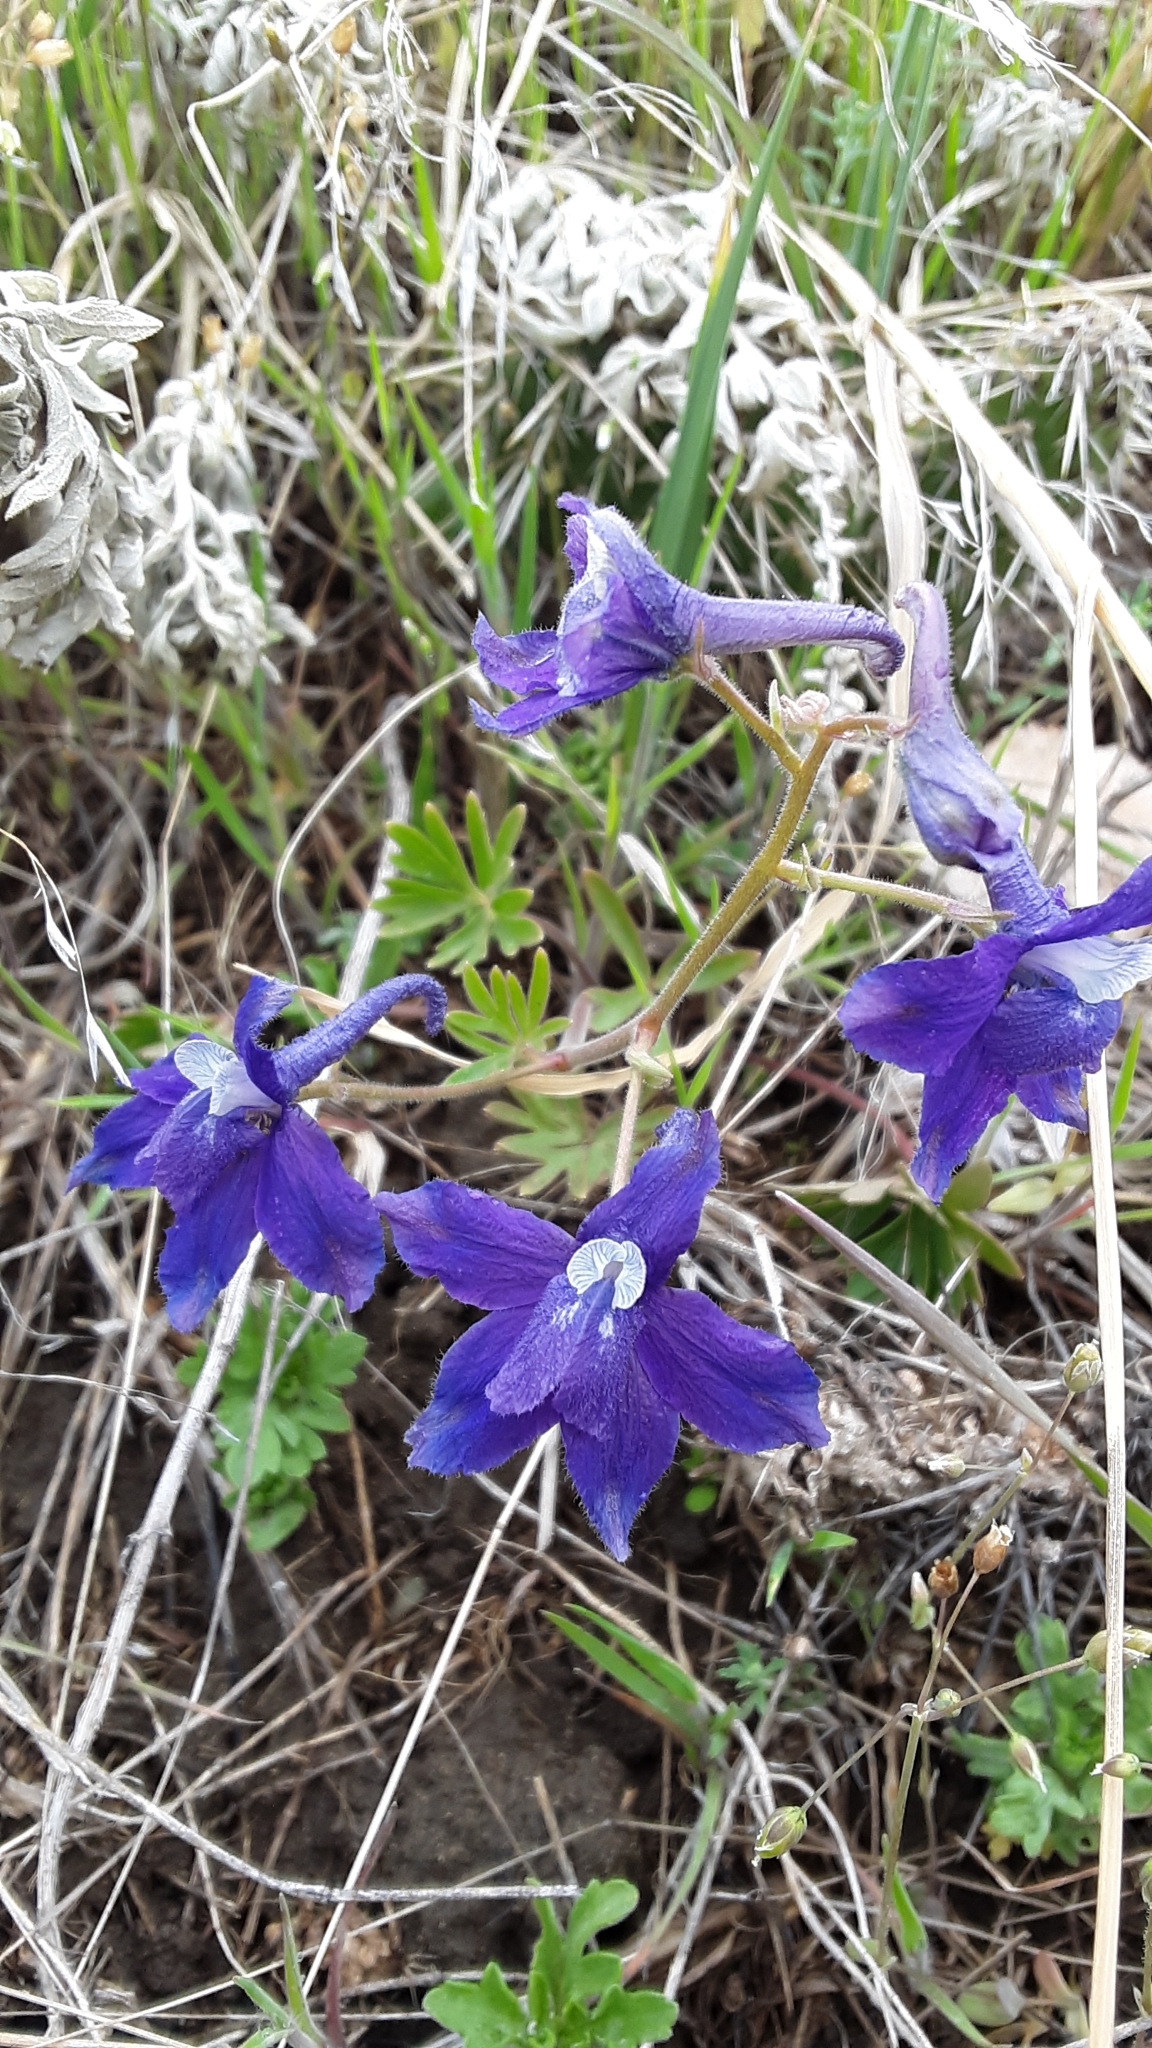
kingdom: Plantae
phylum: Tracheophyta
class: Magnoliopsida
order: Ranunculales
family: Ranunculaceae
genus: Delphinium
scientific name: Delphinium bicolor
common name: Low larkspur
